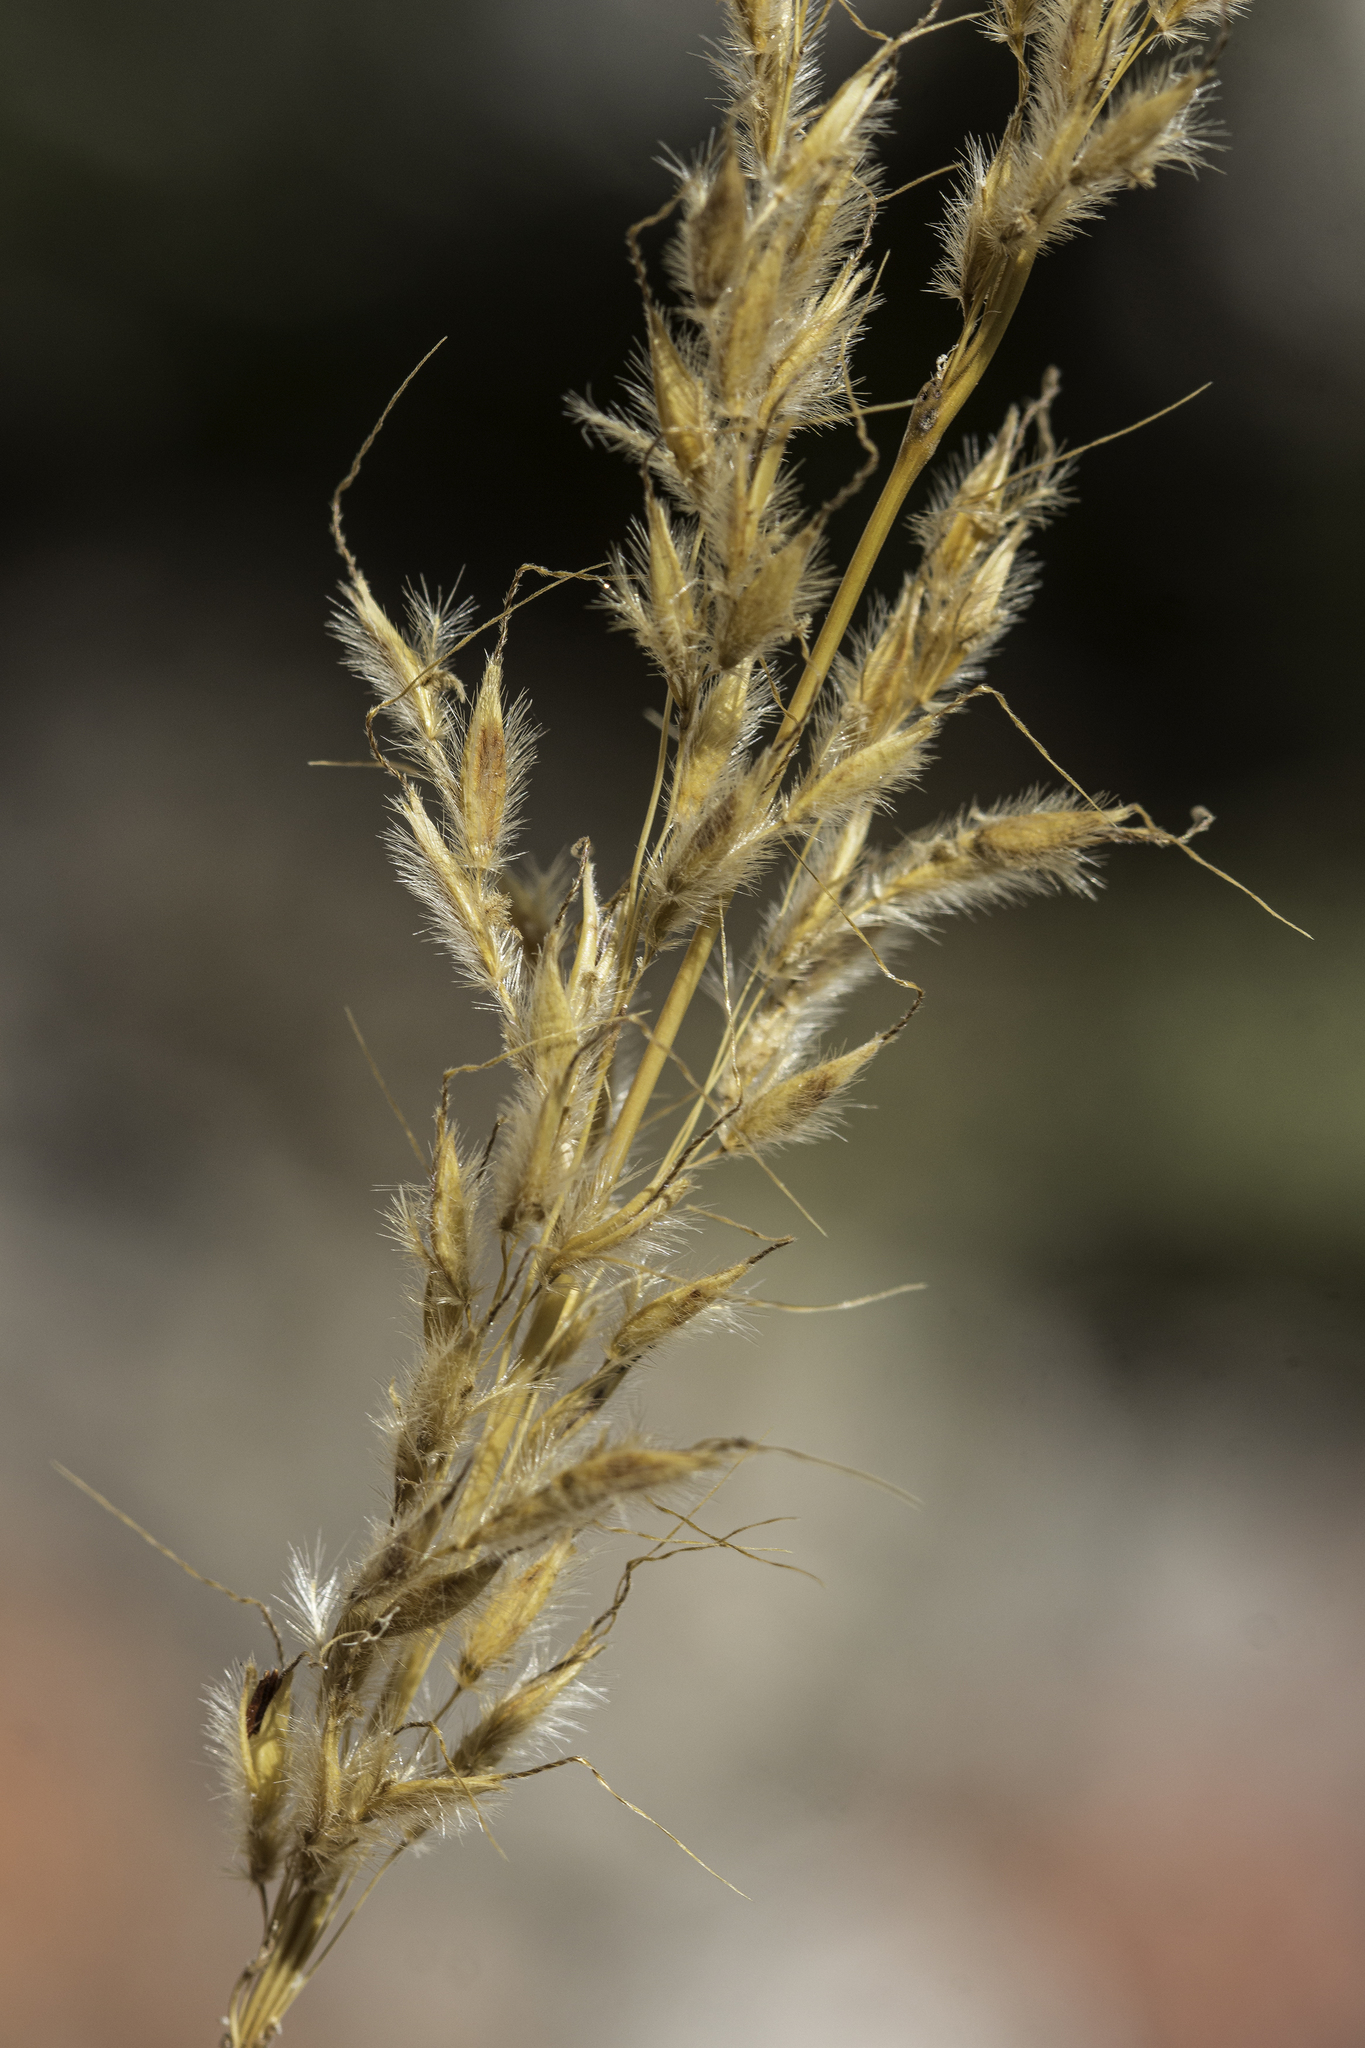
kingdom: Plantae
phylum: Tracheophyta
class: Liliopsida
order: Poales
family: Poaceae
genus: Sorghastrum
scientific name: Sorghastrum nutans
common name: Indian grass
